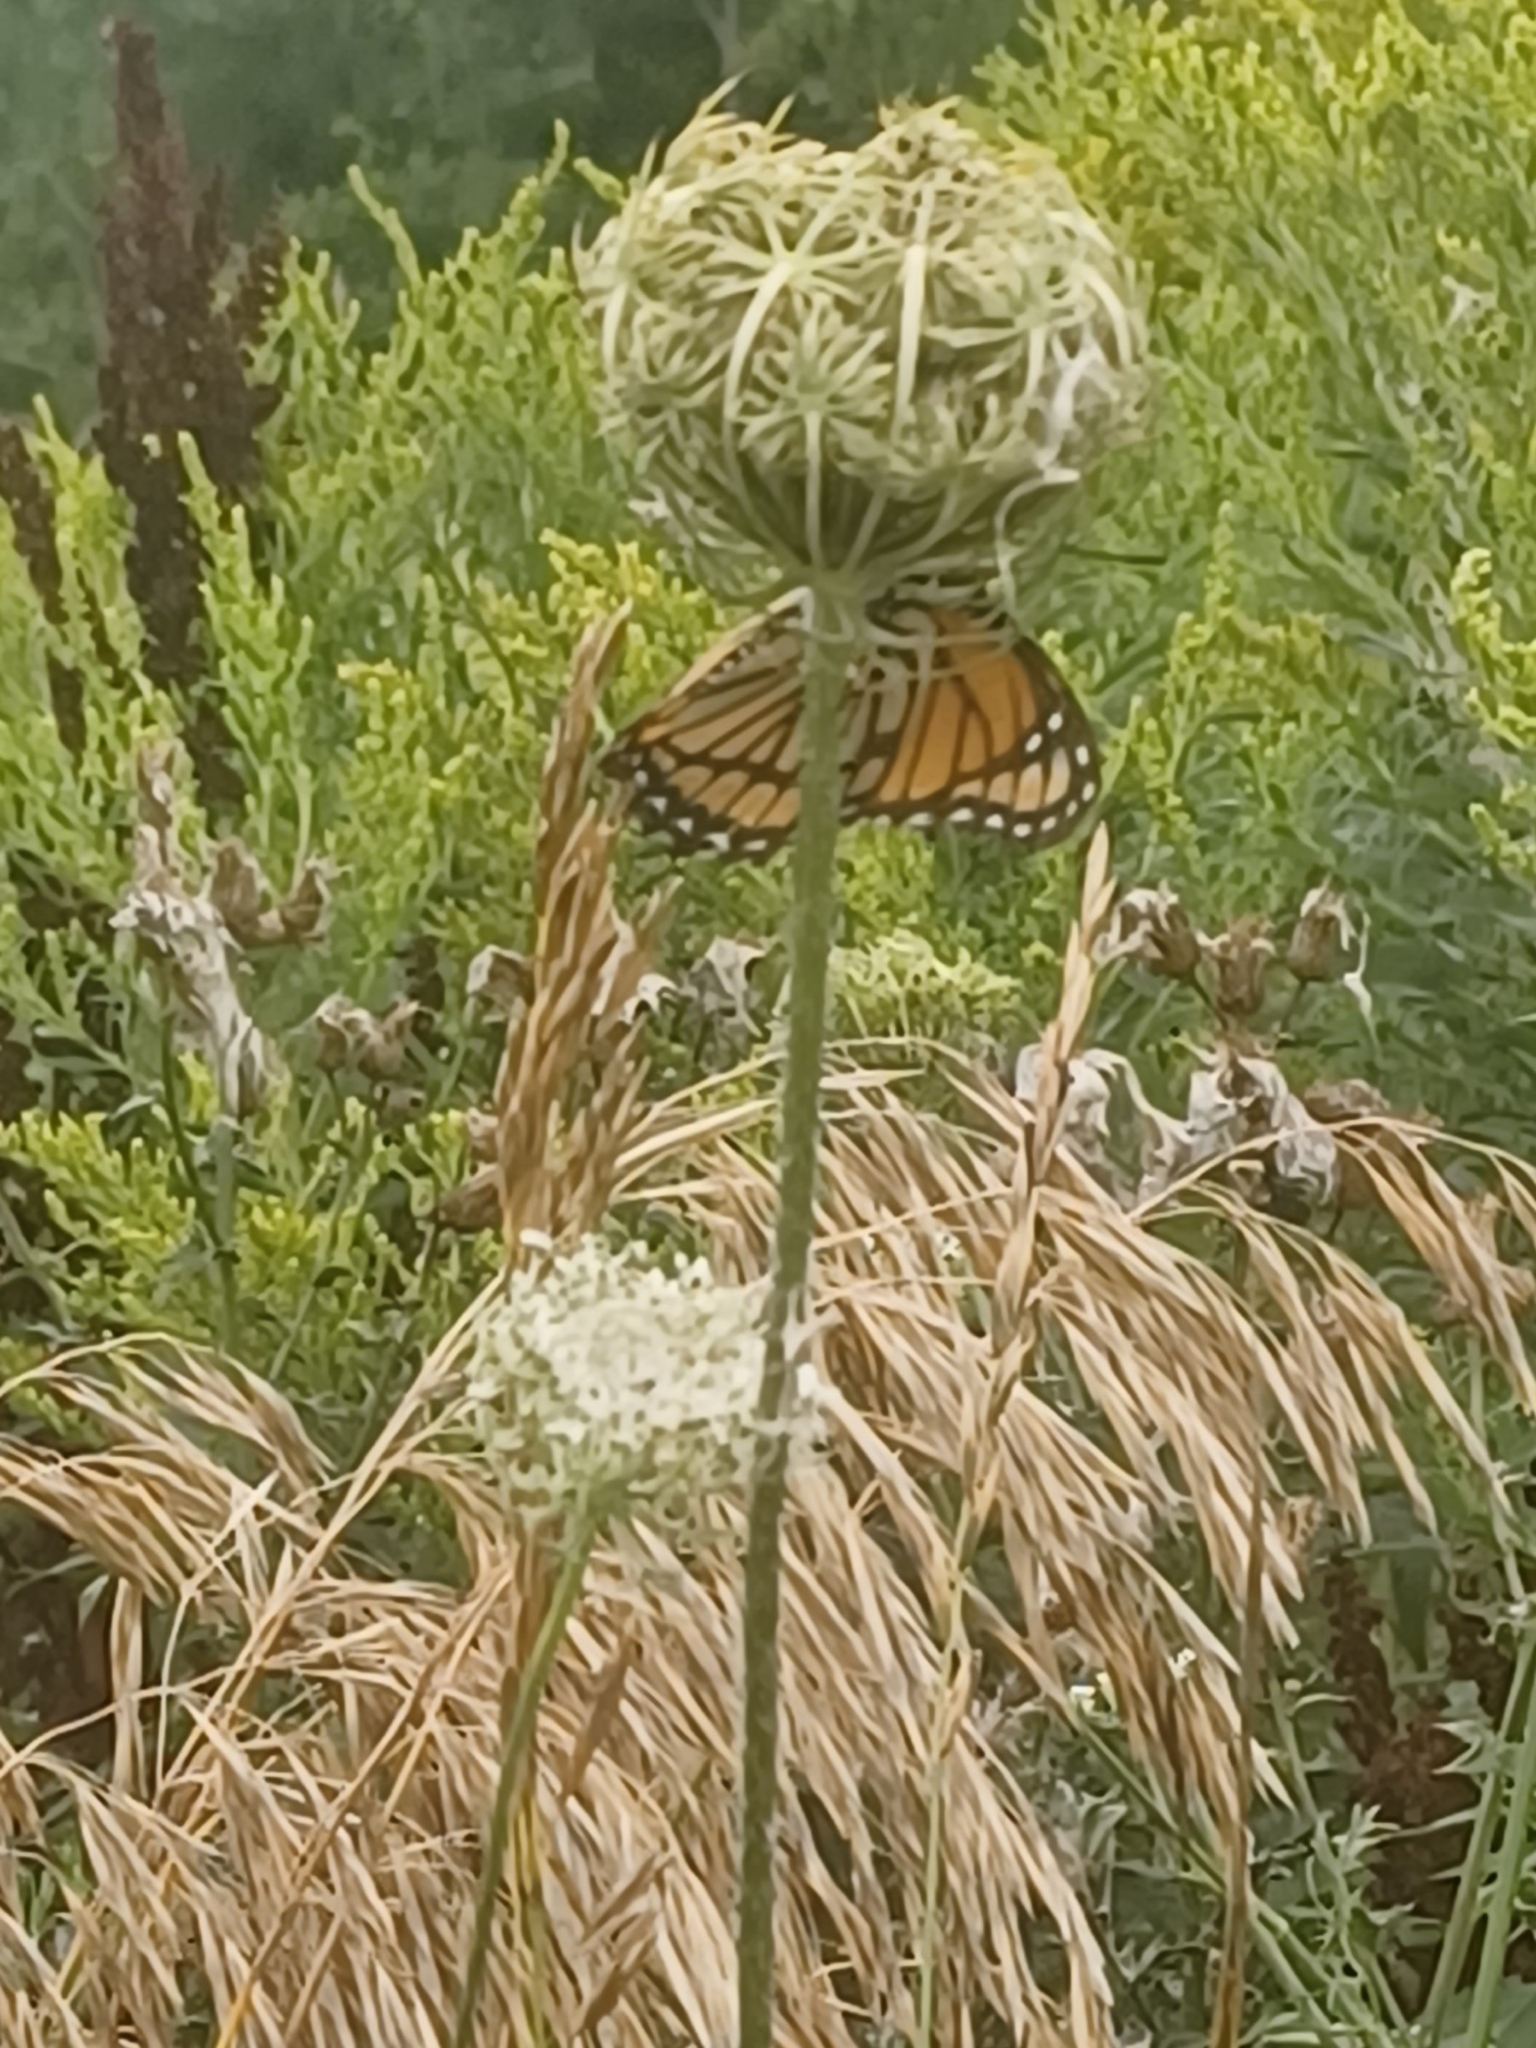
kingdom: Animalia
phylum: Arthropoda
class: Insecta
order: Lepidoptera
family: Nymphalidae
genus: Limenitis
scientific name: Limenitis archippus
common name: Viceroy
